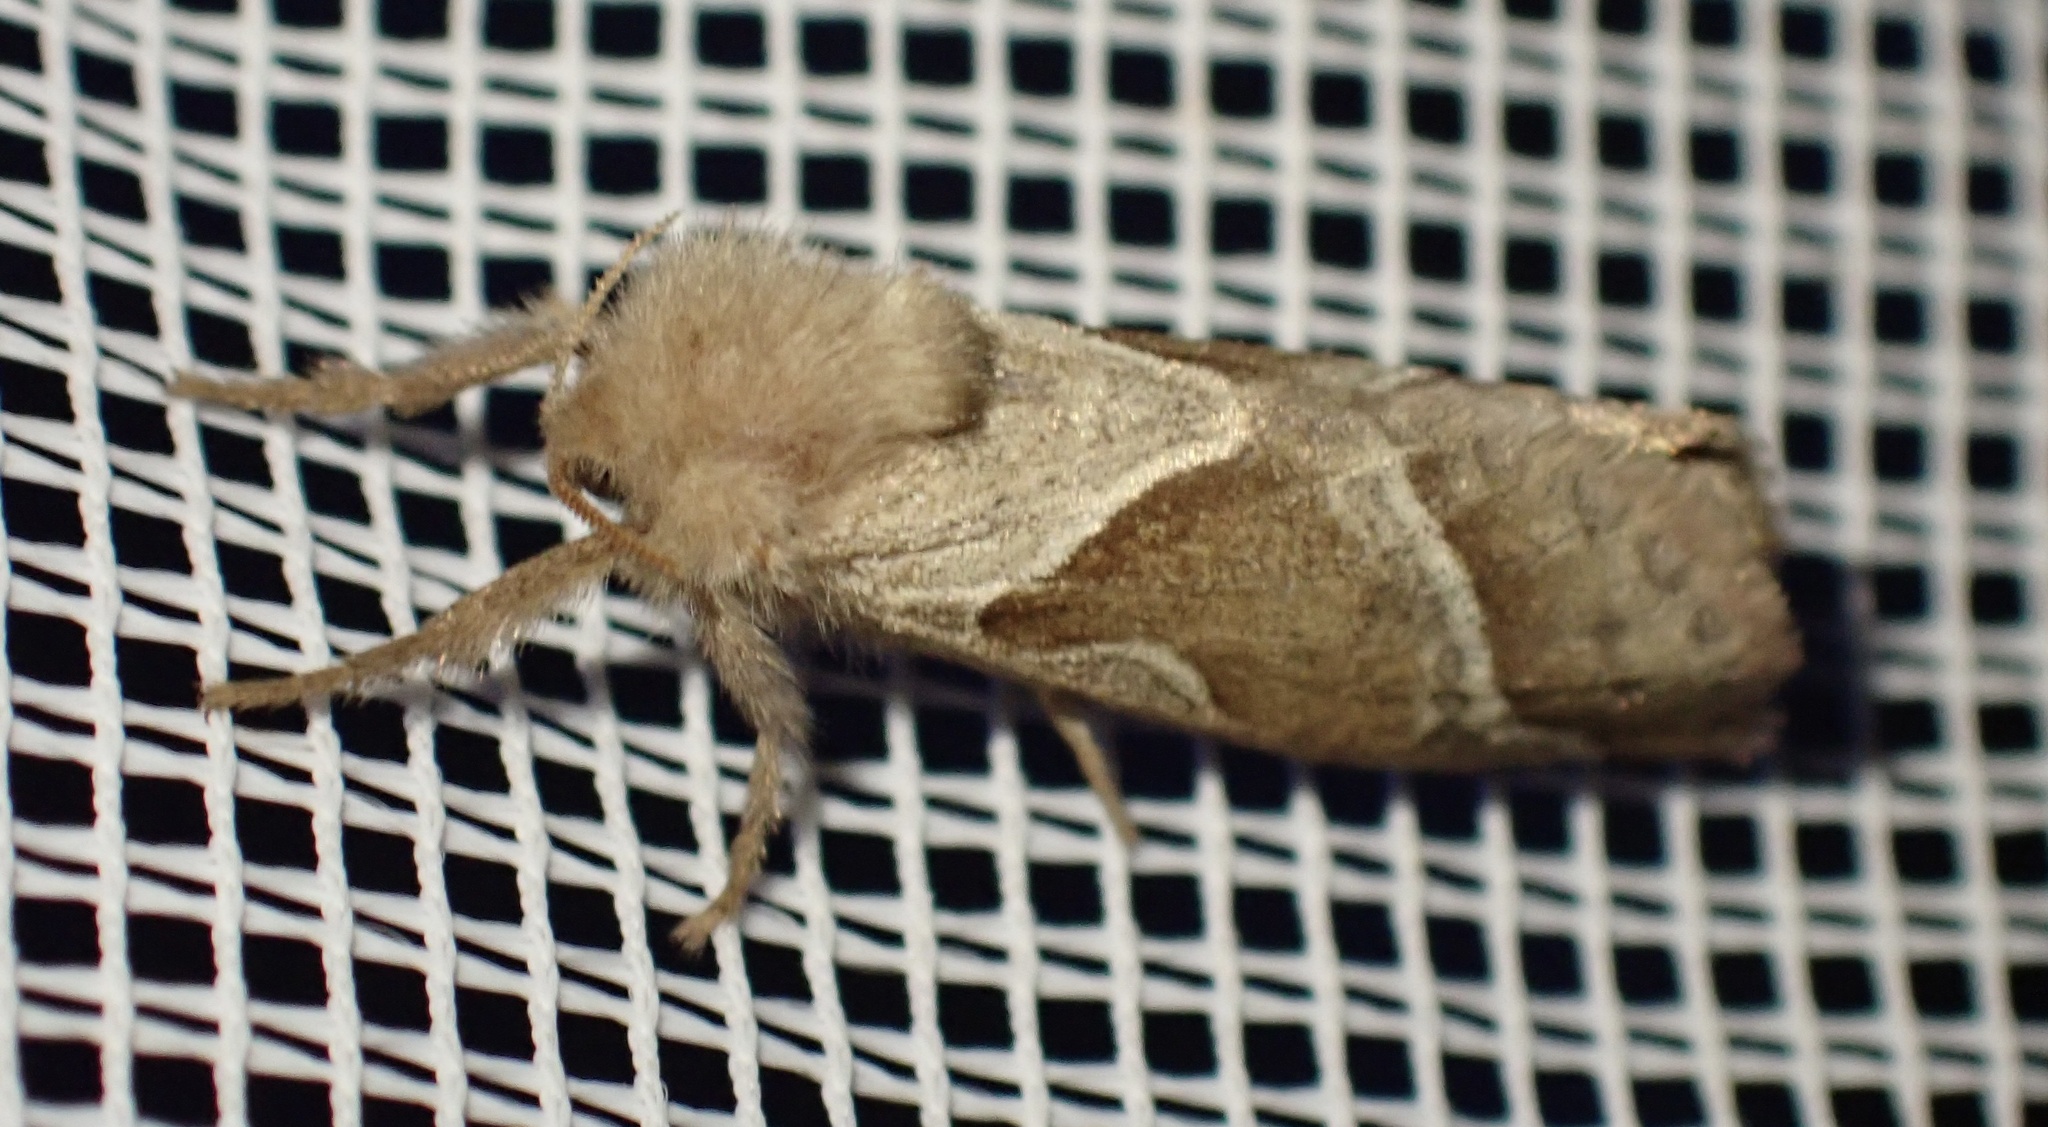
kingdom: Animalia
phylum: Arthropoda
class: Insecta
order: Lepidoptera
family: Hepialidae
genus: Triodia
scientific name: Triodia sylvina
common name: Orange swift
